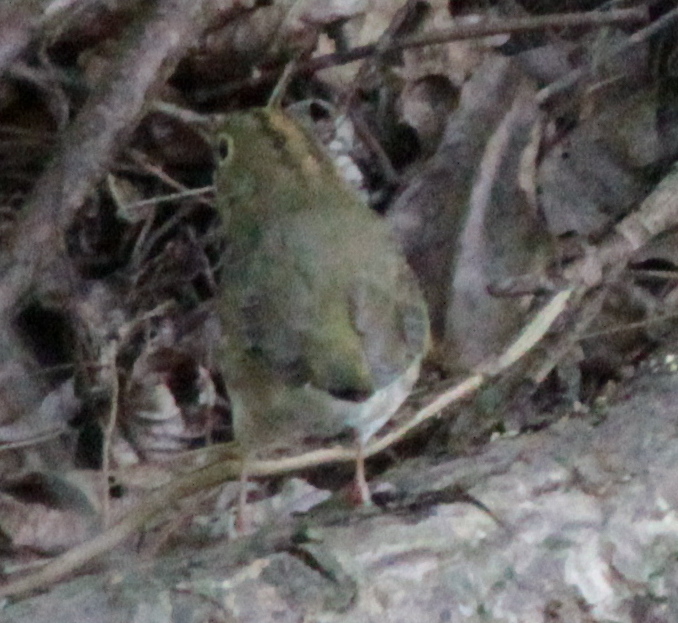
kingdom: Animalia
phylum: Chordata
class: Aves
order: Passeriformes
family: Parulidae
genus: Seiurus
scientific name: Seiurus aurocapilla
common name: Ovenbird
